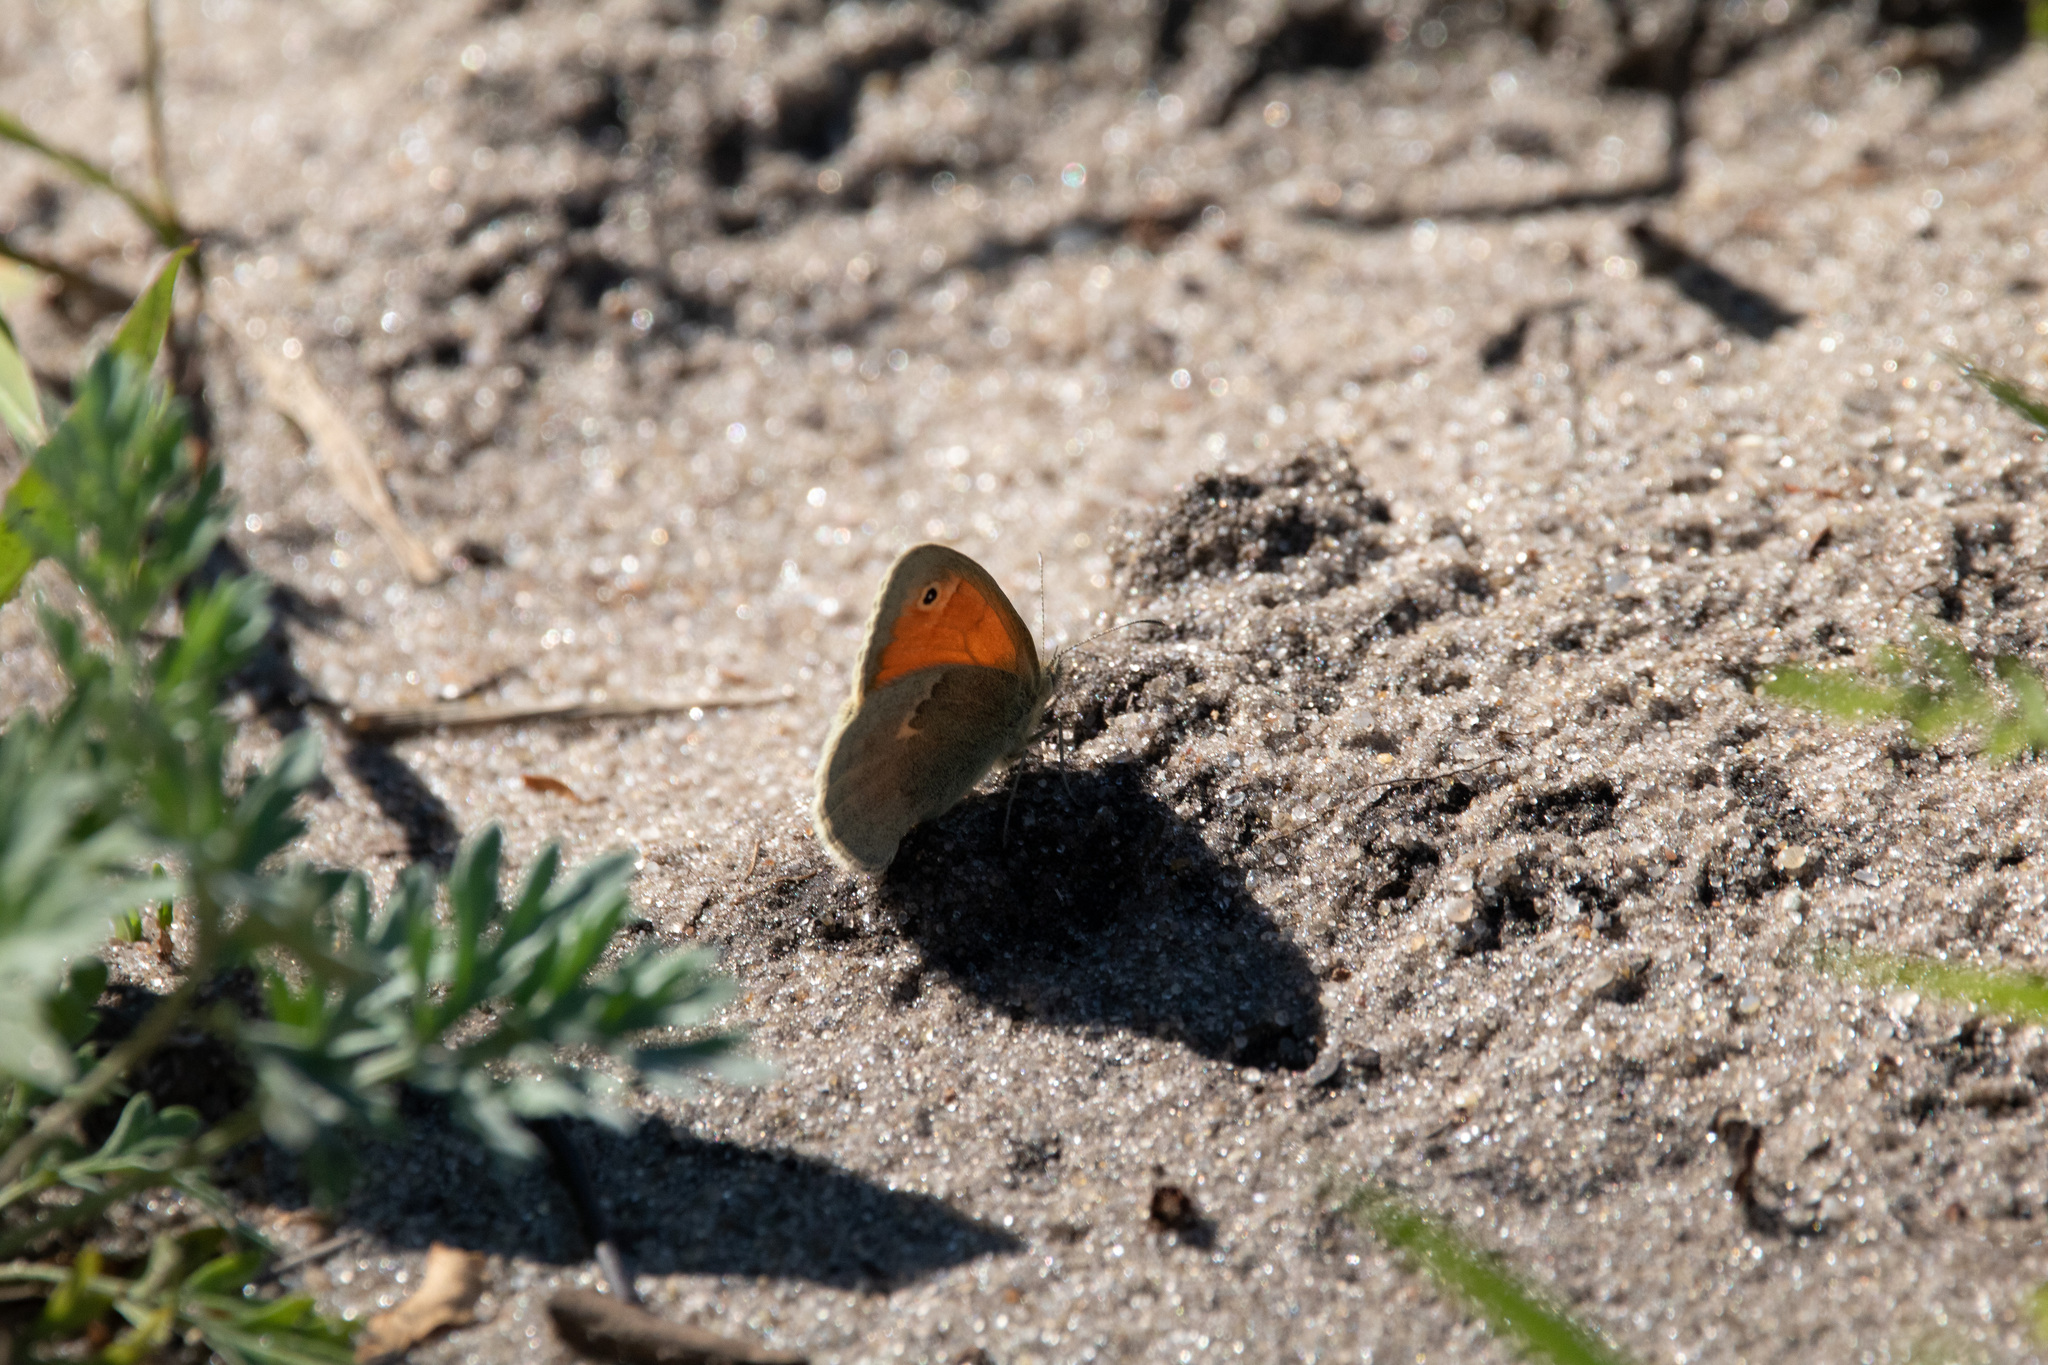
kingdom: Animalia
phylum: Arthropoda
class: Insecta
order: Lepidoptera
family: Nymphalidae
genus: Coenonympha
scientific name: Coenonympha pamphilus
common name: Small heath
